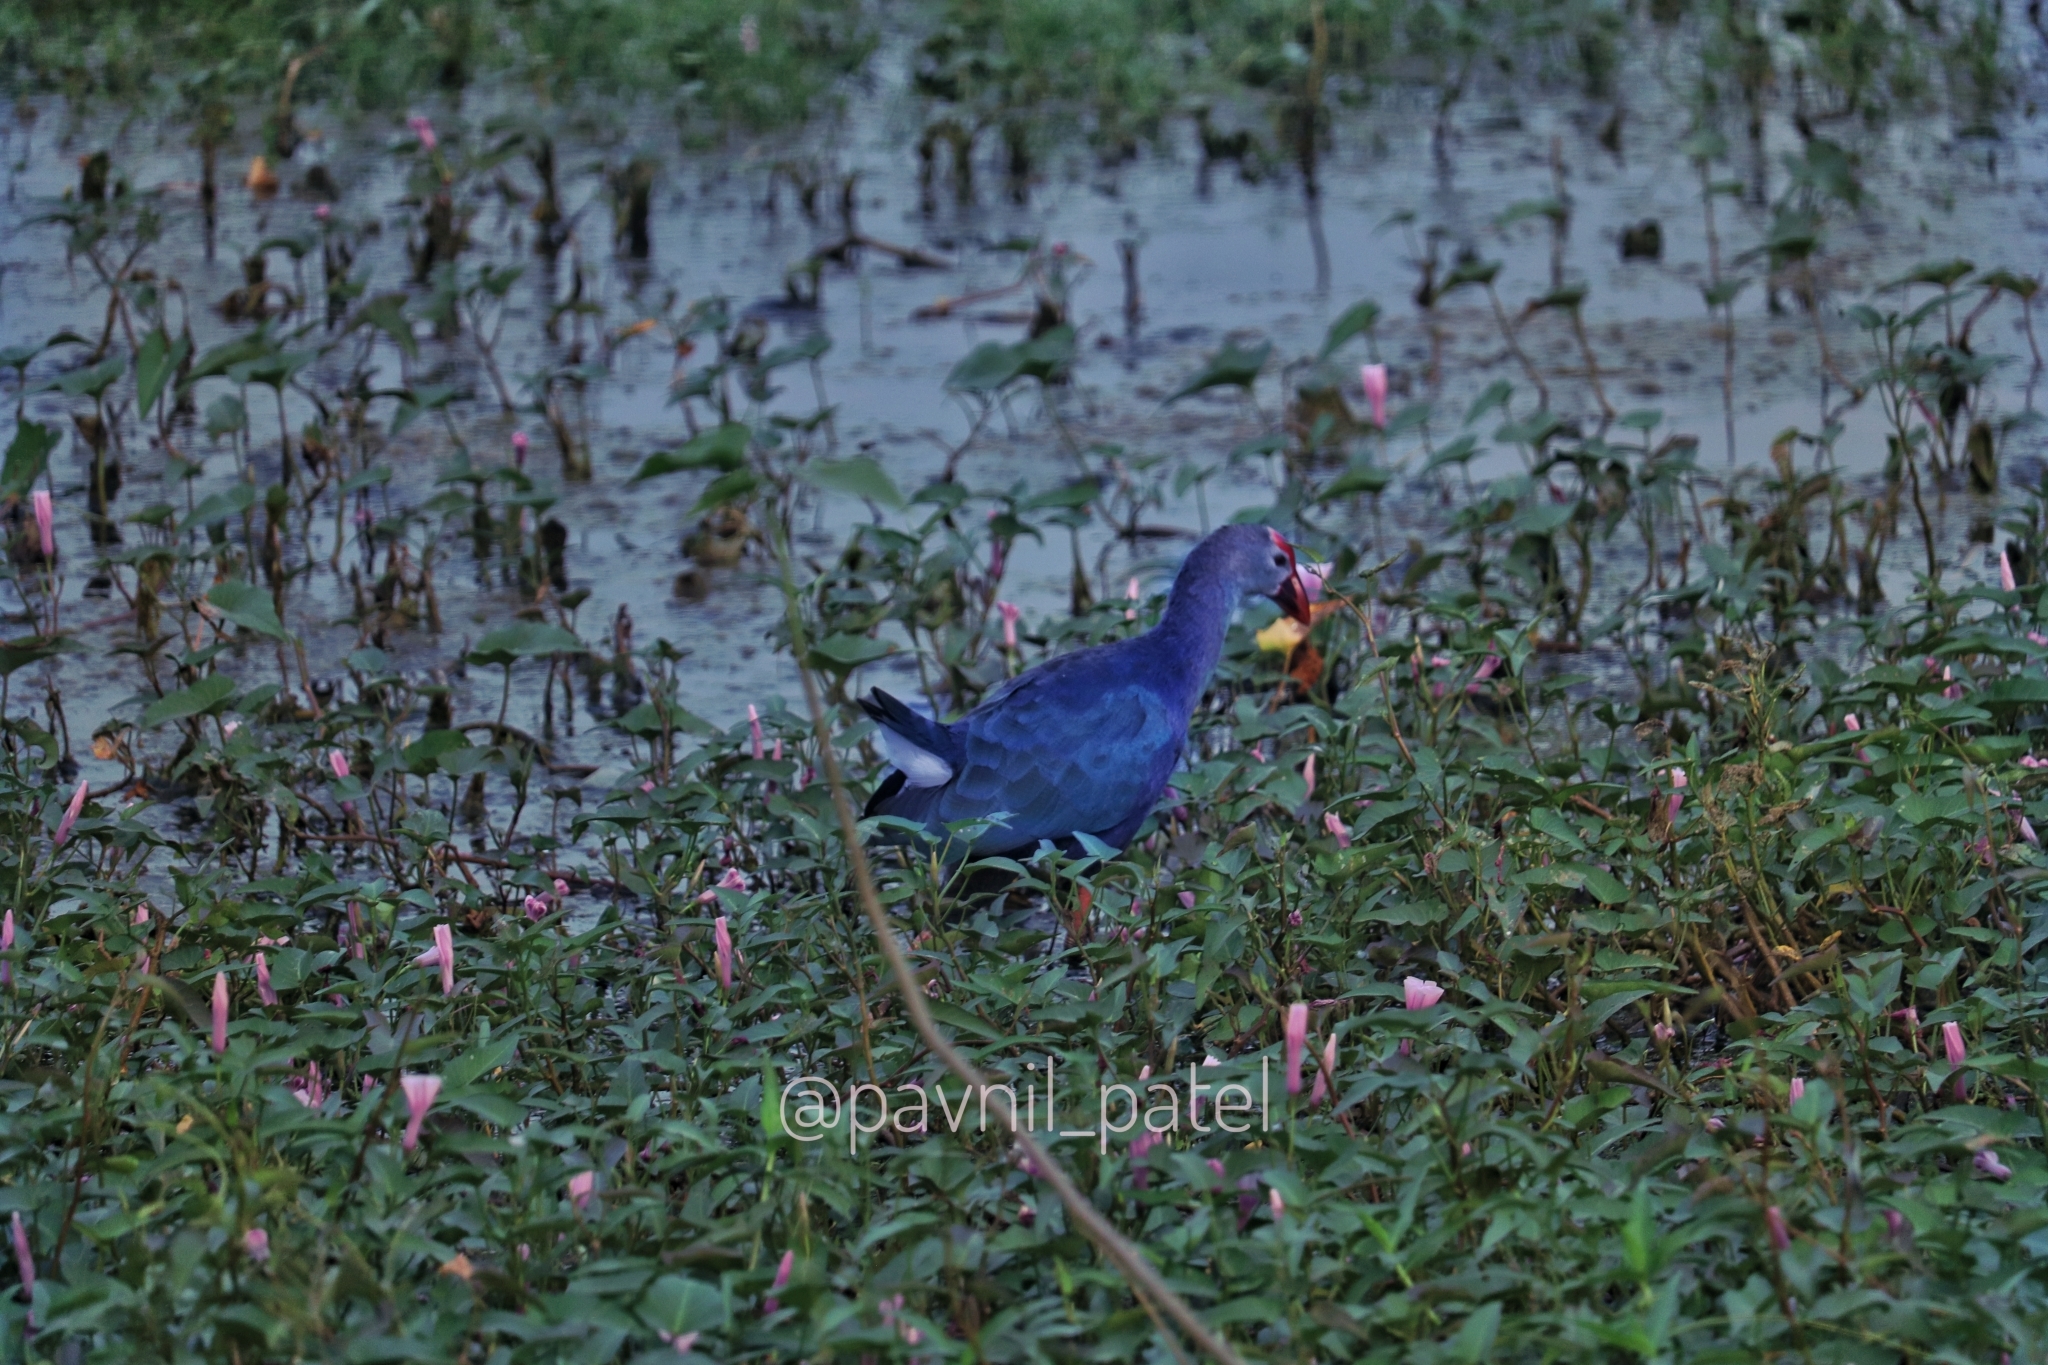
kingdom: Animalia
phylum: Chordata
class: Aves
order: Gruiformes
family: Rallidae
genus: Porphyrio
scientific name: Porphyrio porphyrio
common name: Purple swamphen
